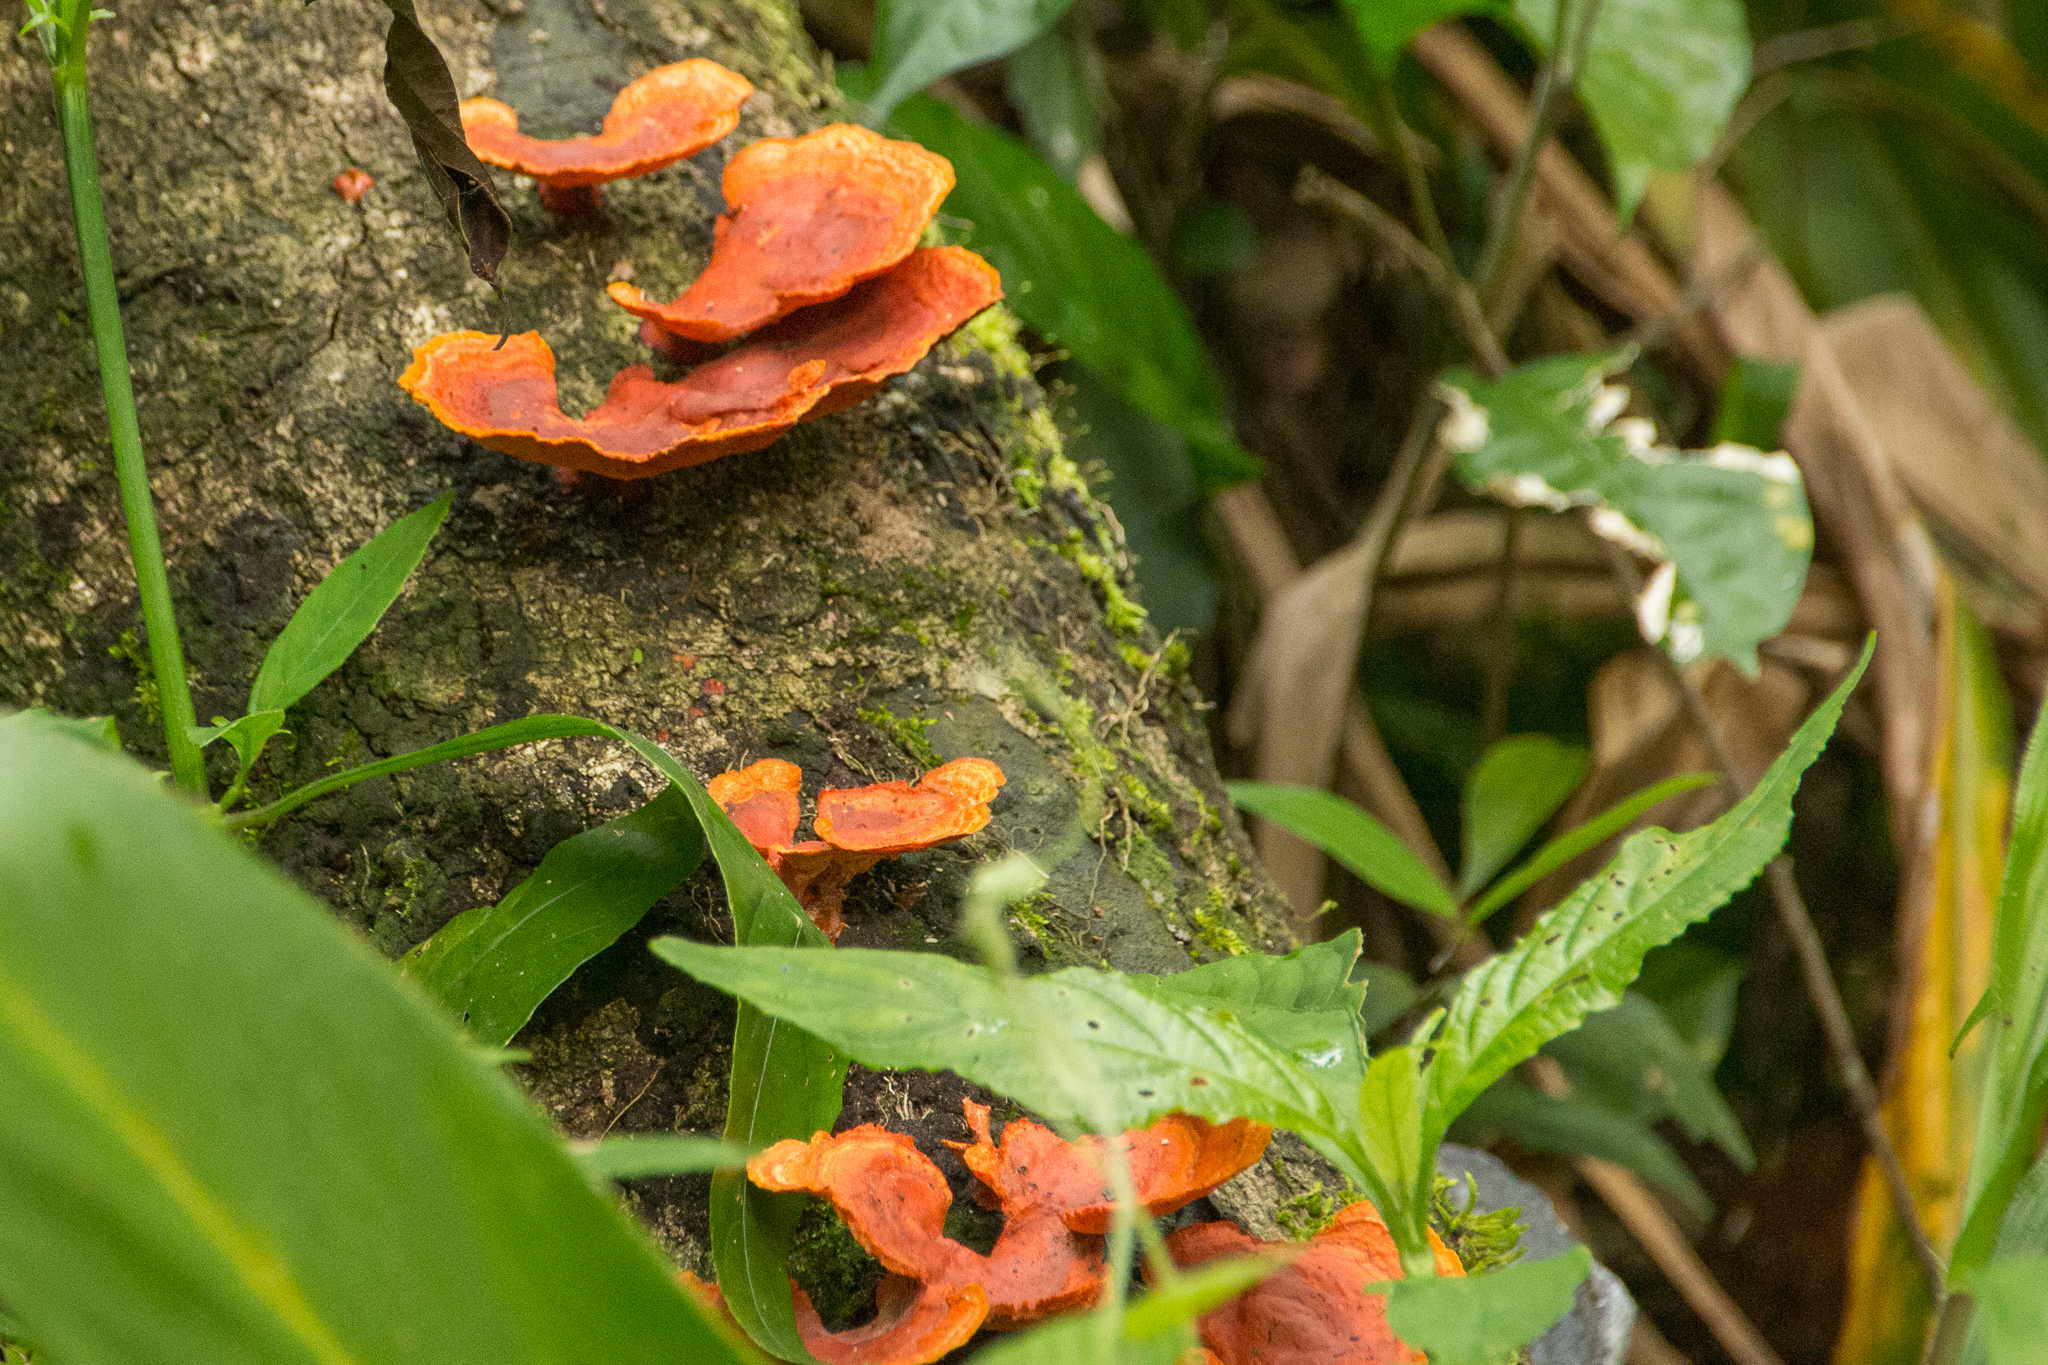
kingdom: Fungi
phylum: Basidiomycota
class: Agaricomycetes
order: Polyporales
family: Polyporaceae
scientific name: Polyporaceae
